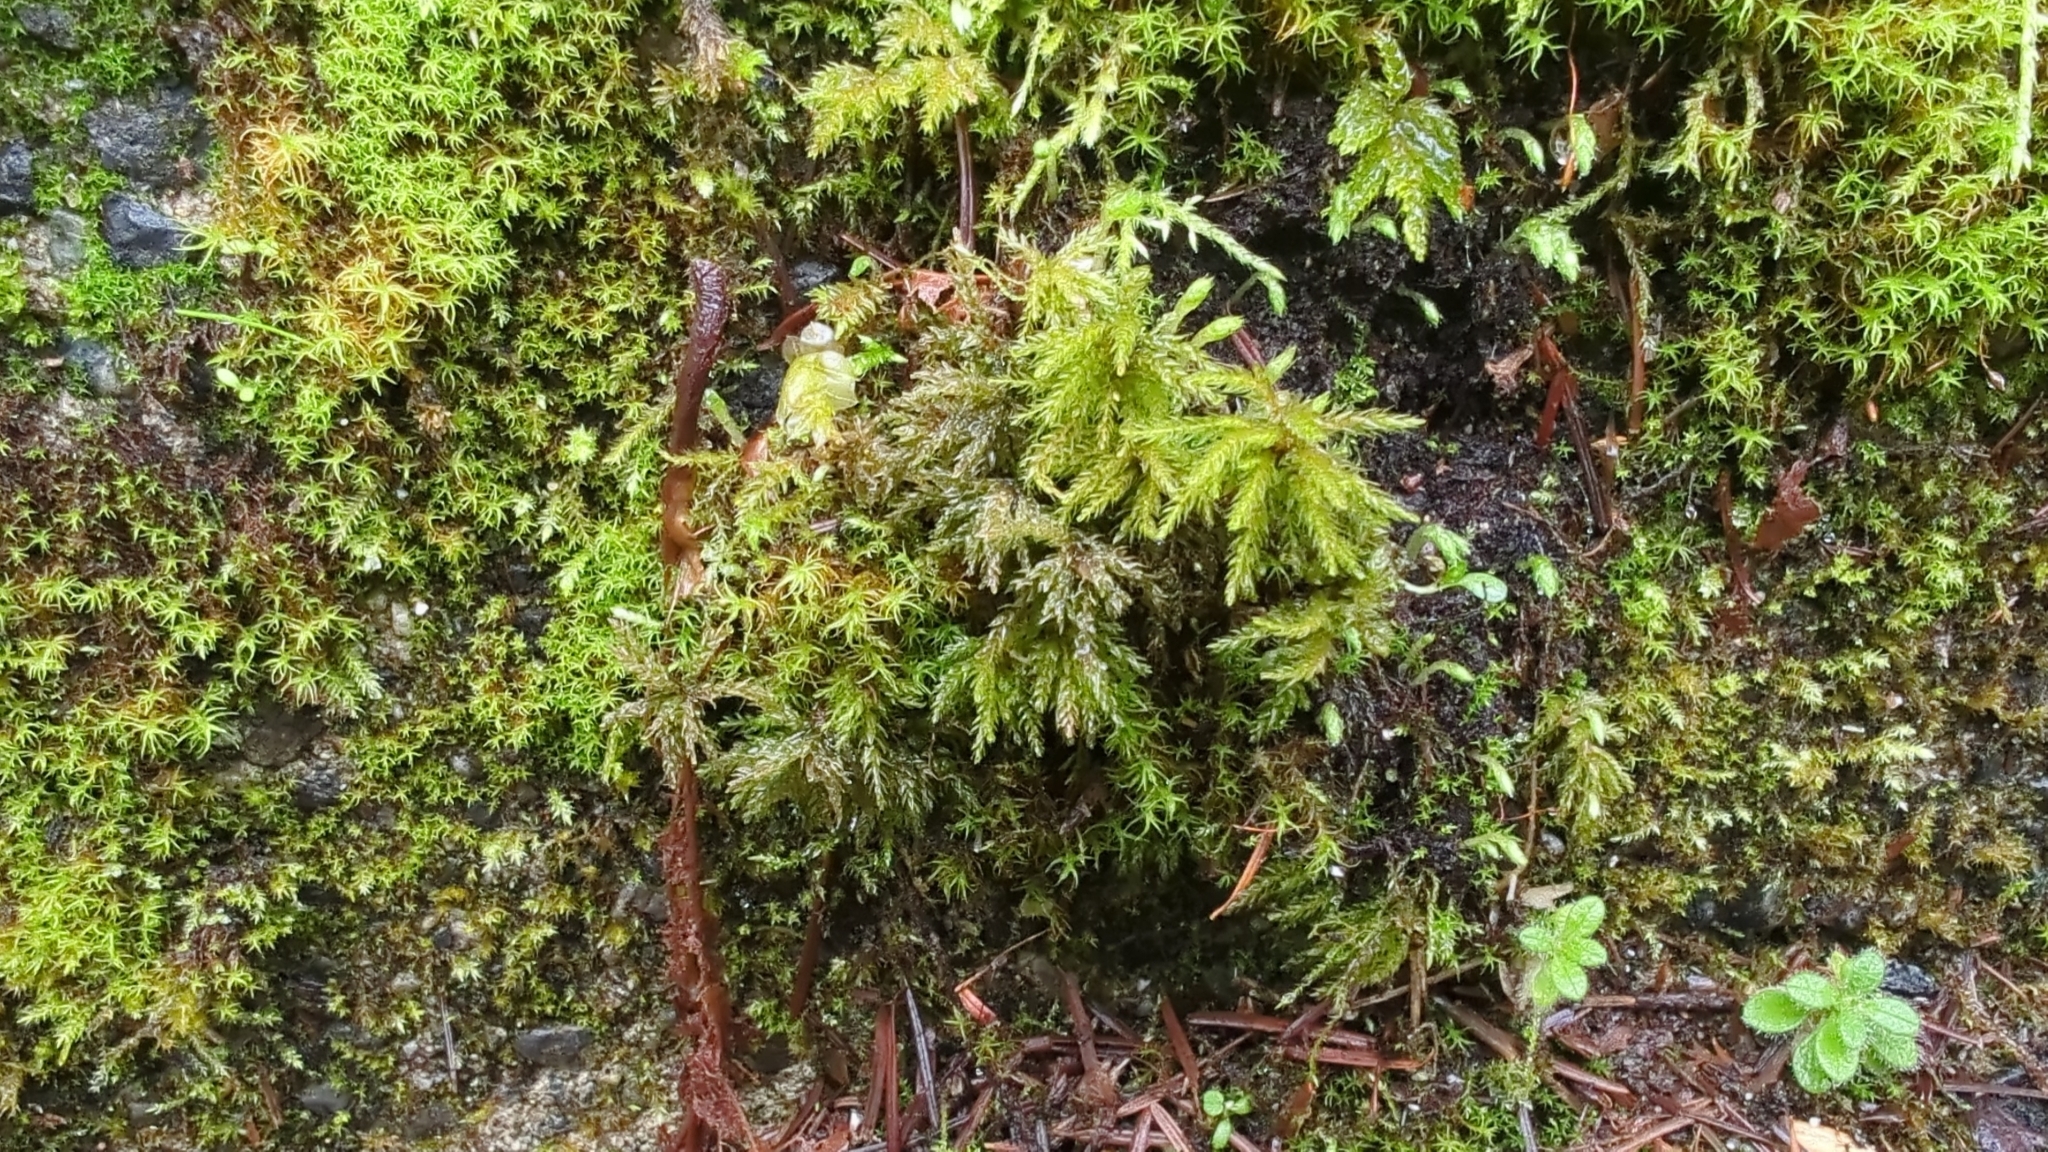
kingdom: Plantae
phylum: Bryophyta
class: Bryopsida
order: Bryales
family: Mniaceae
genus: Leucolepis
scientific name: Leucolepis acanthoneura
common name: Leucolepis umbrella moss
